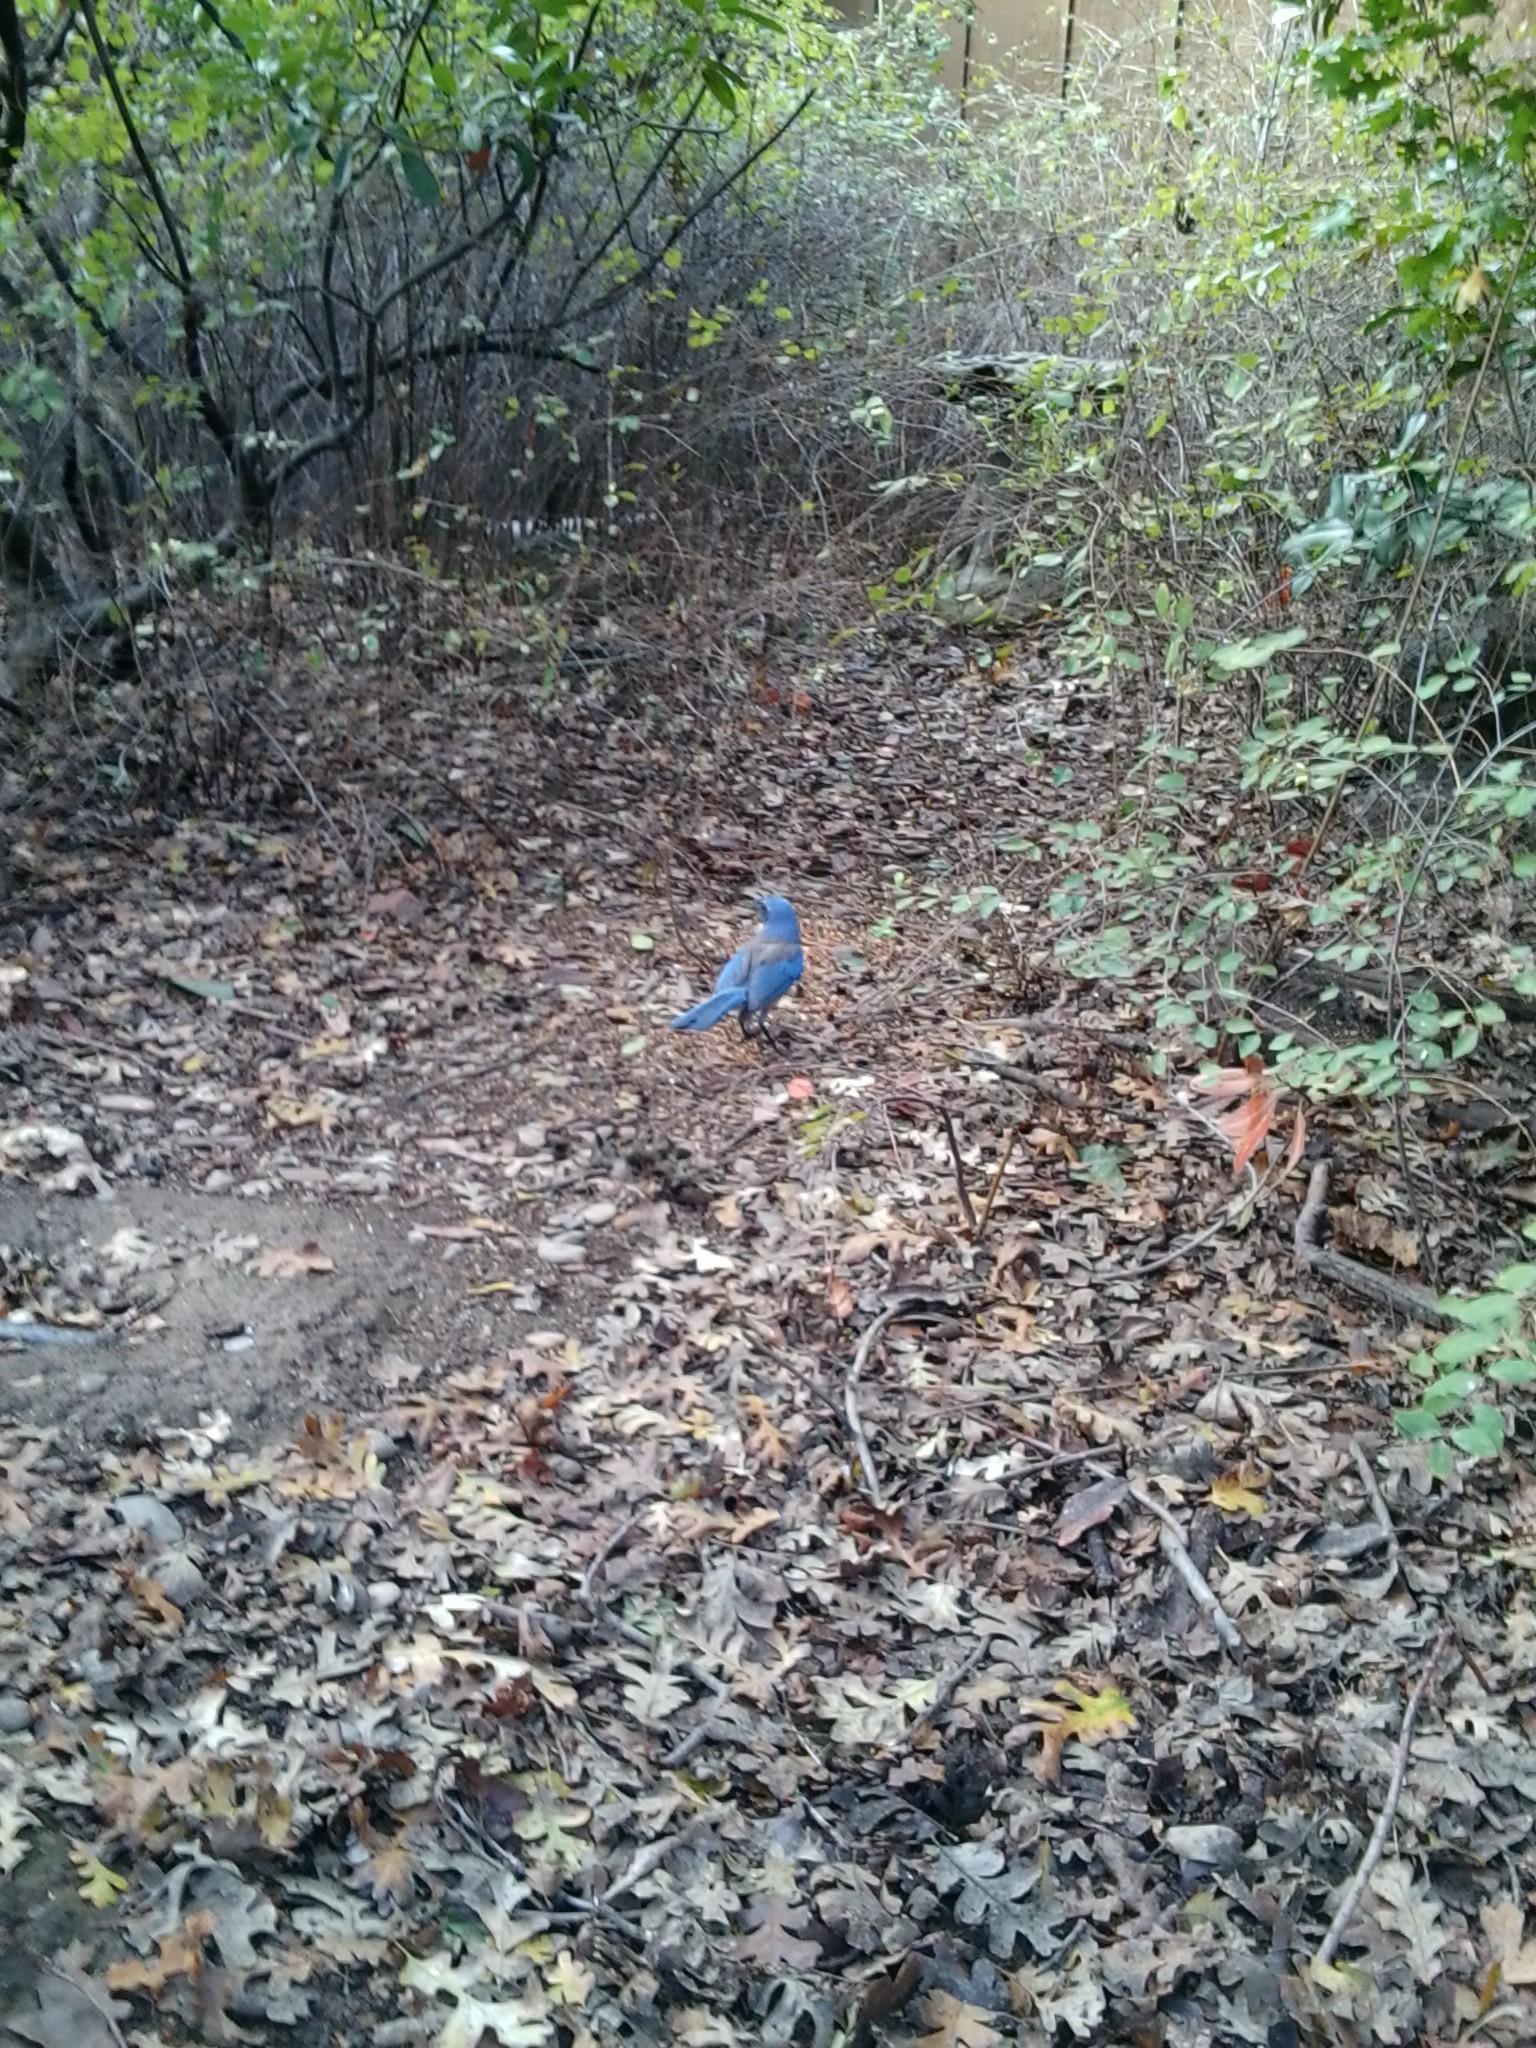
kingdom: Animalia
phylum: Chordata
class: Aves
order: Passeriformes
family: Corvidae
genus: Aphelocoma
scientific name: Aphelocoma californica
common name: California scrub-jay
